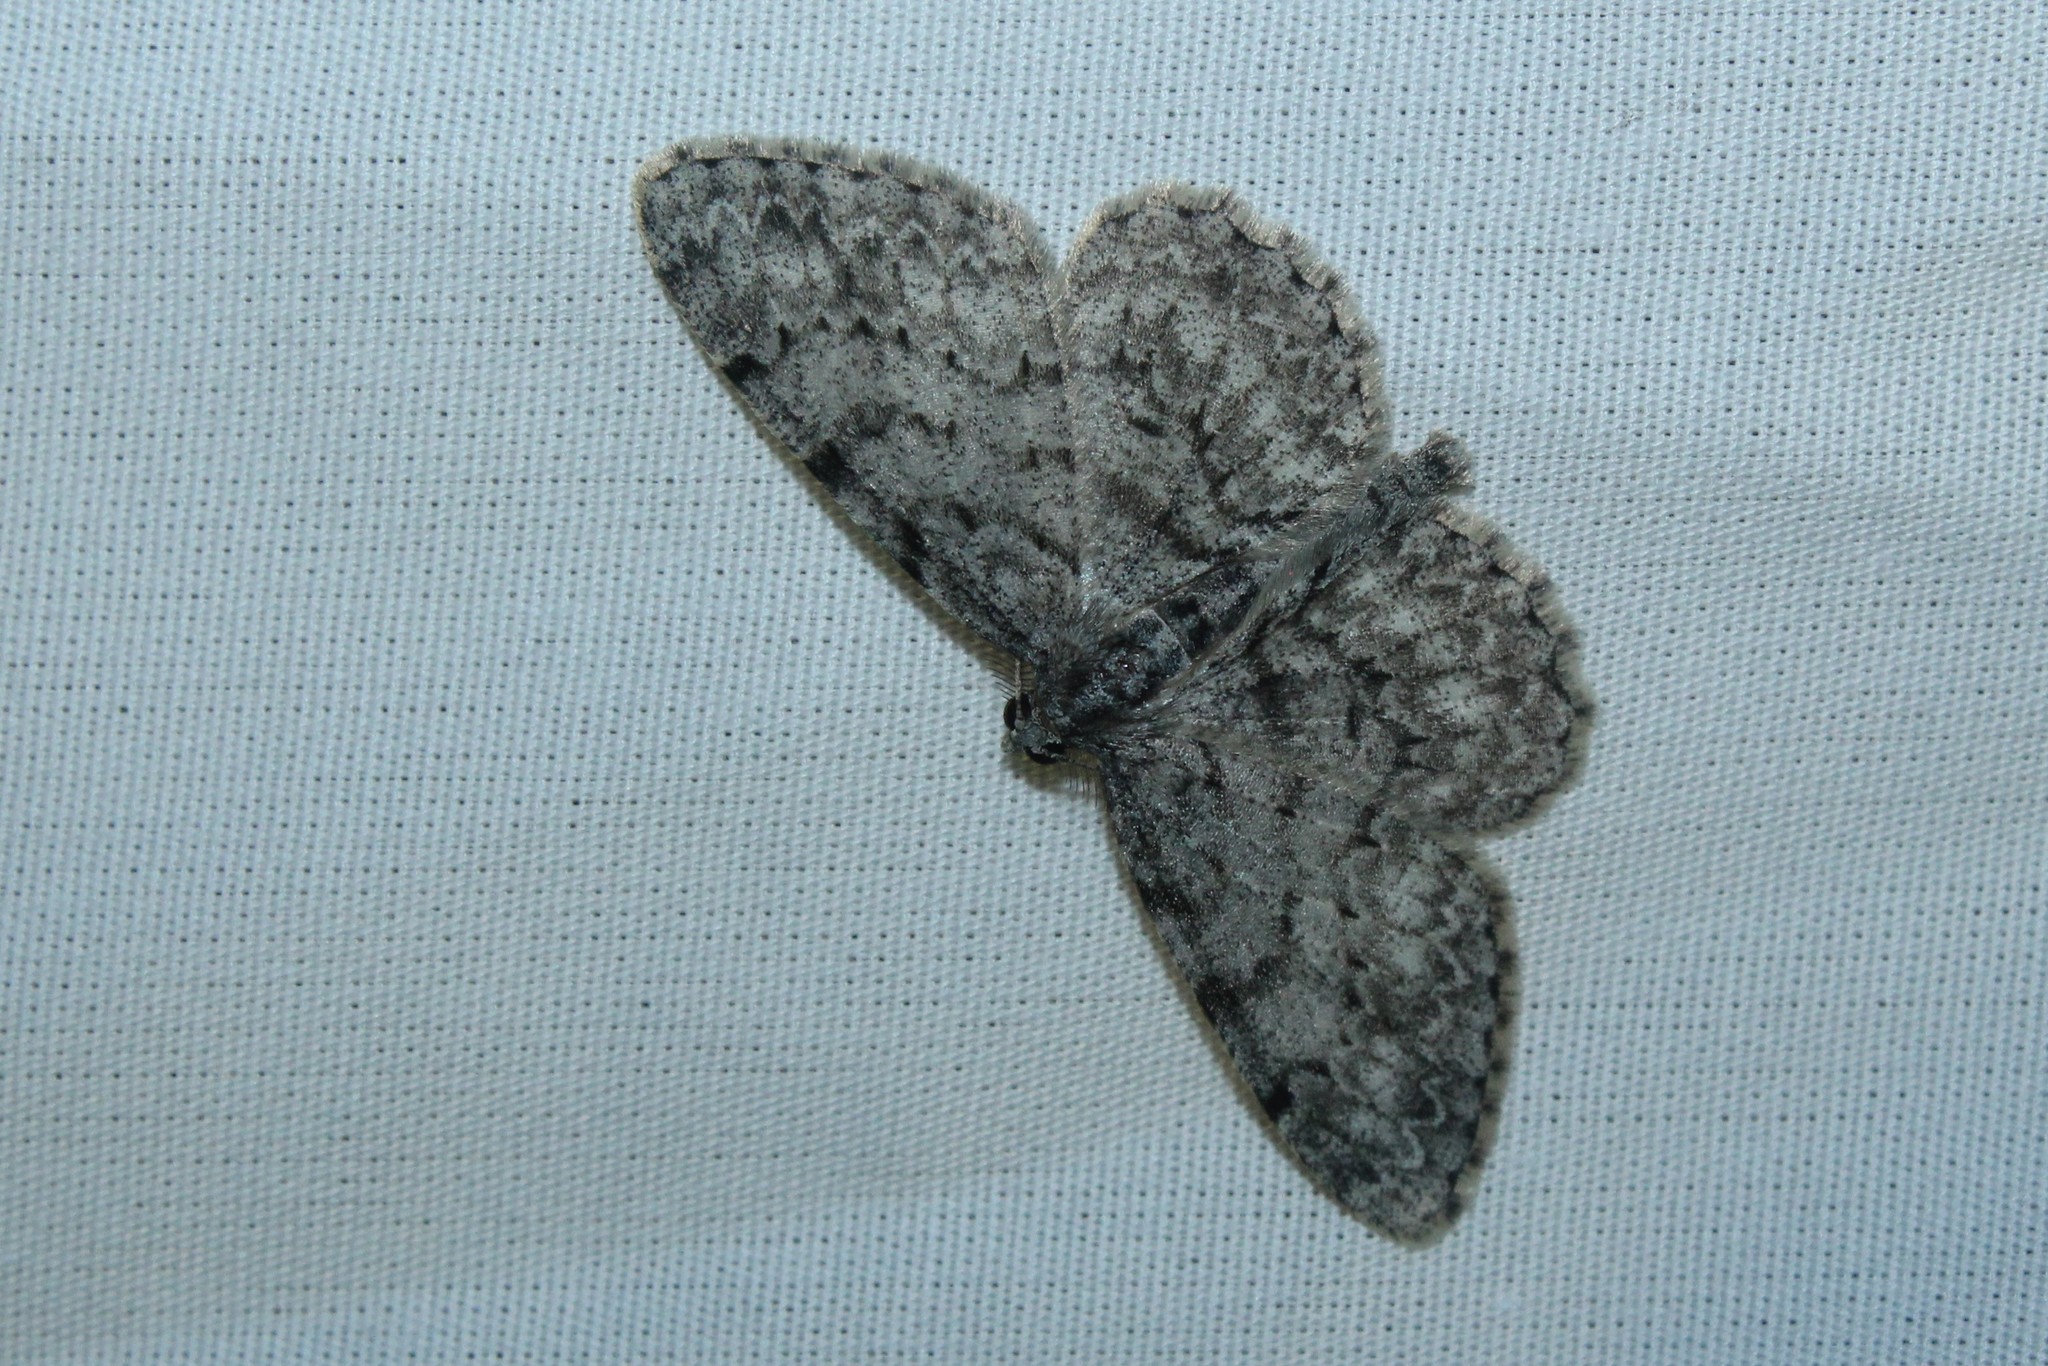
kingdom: Animalia
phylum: Arthropoda
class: Insecta
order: Lepidoptera
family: Geometridae
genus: Protoboarmia
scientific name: Protoboarmia porcelaria
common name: Porcelain gray
